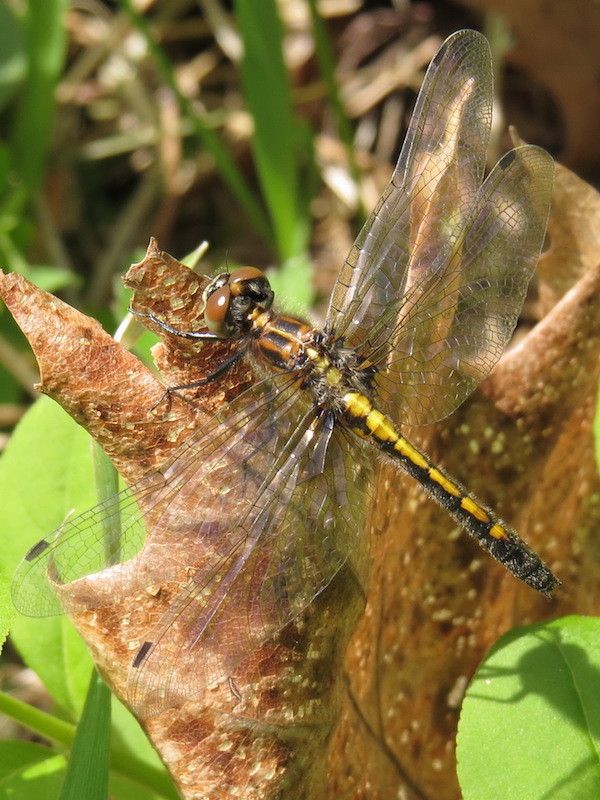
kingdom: Animalia
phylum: Arthropoda
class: Insecta
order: Odonata
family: Libellulidae
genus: Leucorrhinia
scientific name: Leucorrhinia intacta
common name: Dot-tailed whiteface
